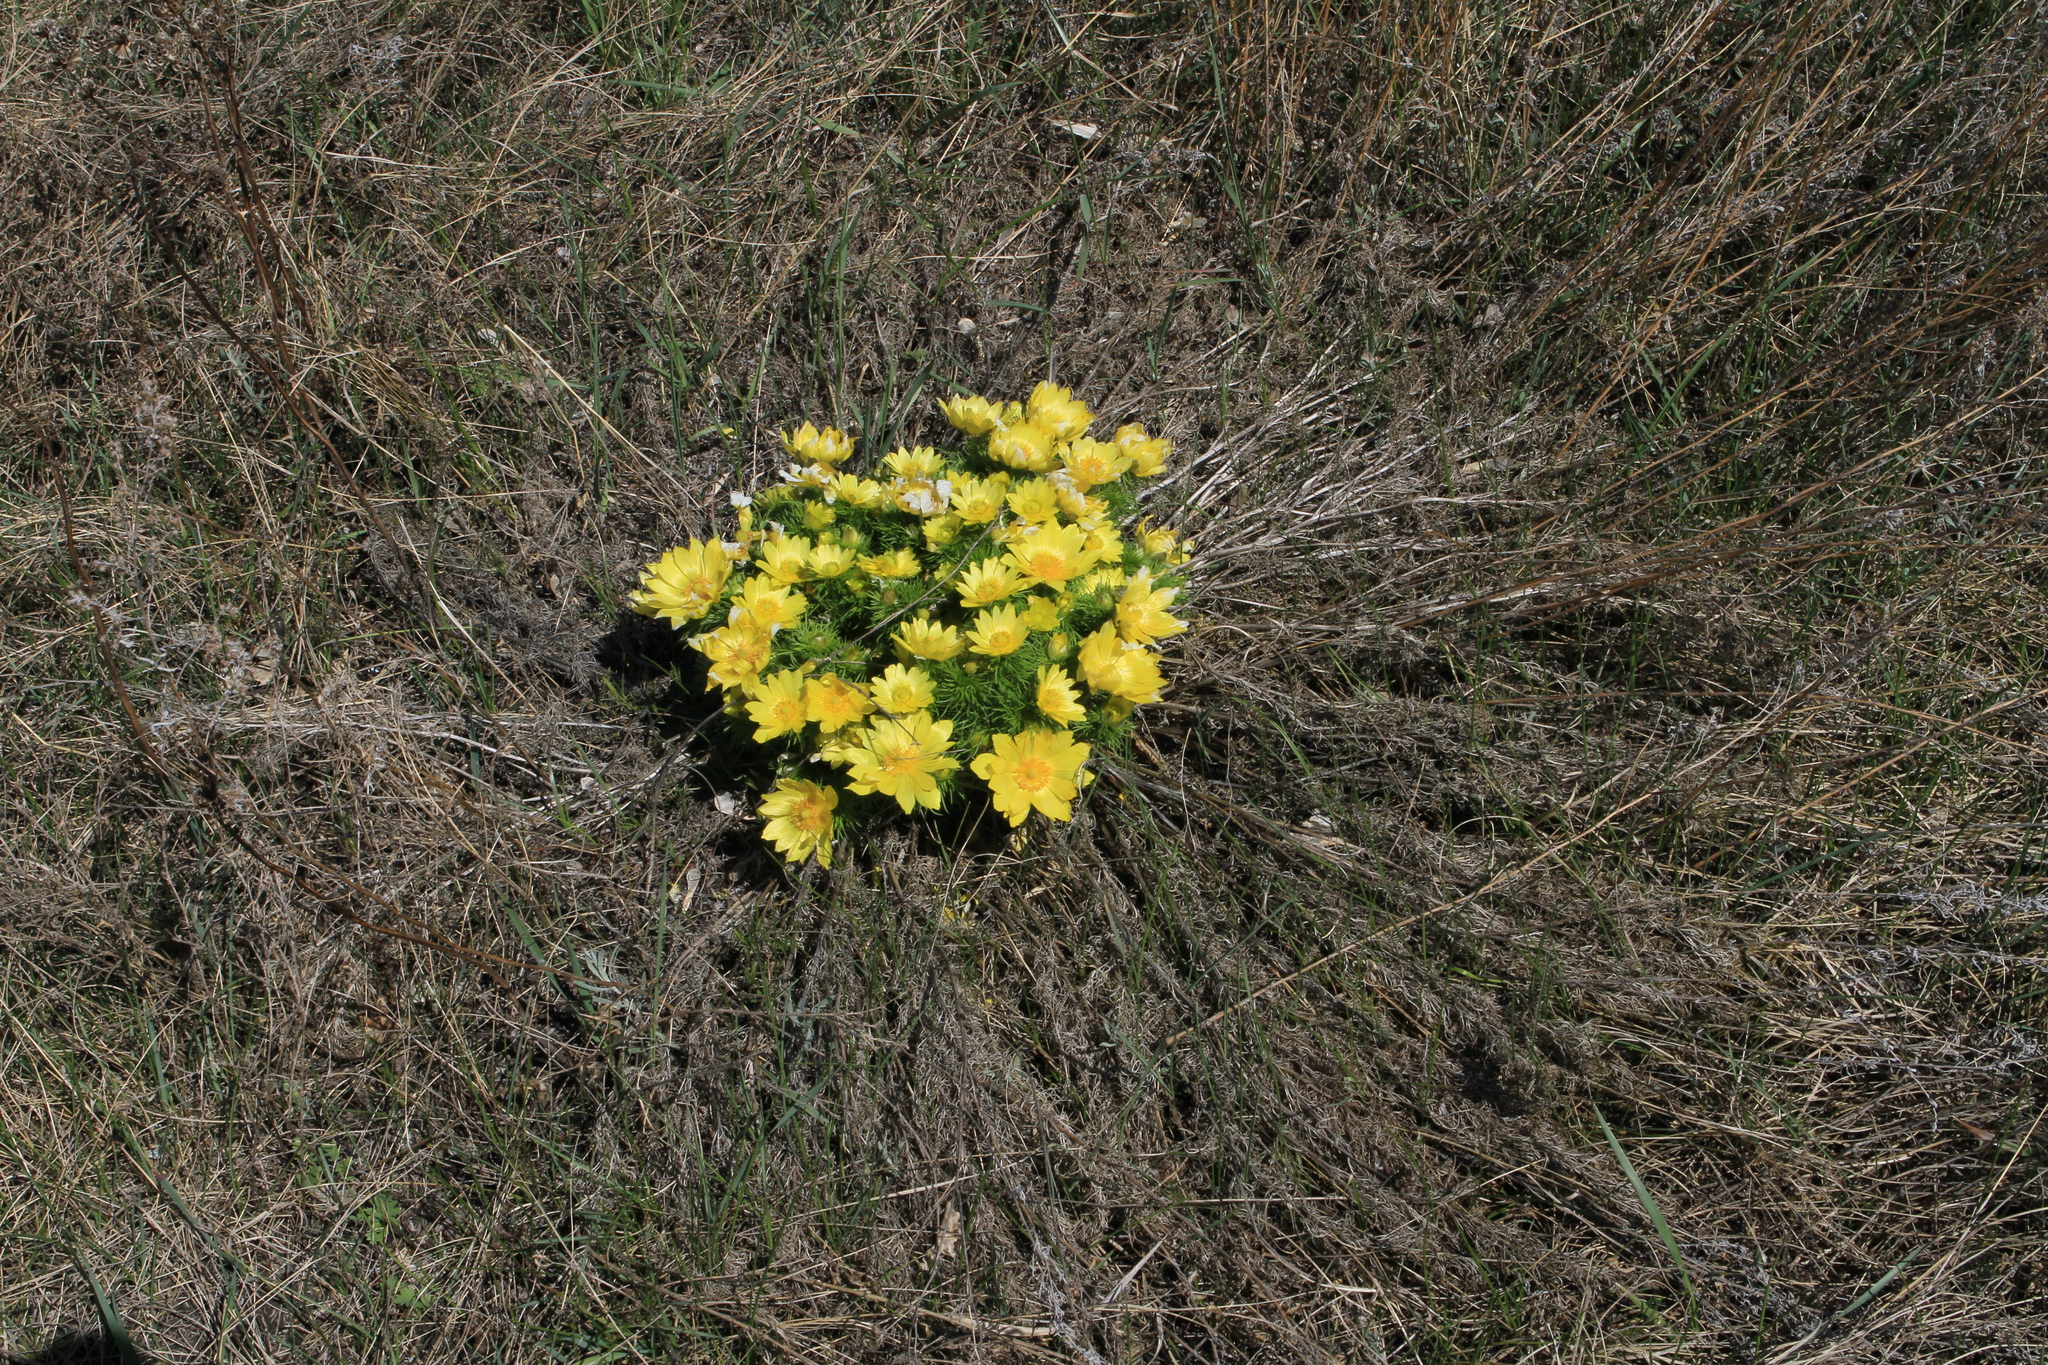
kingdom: Plantae
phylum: Tracheophyta
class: Magnoliopsida
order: Ranunculales
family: Ranunculaceae
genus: Adonis
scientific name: Adonis vernalis
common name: Yellow pheasants-eye
